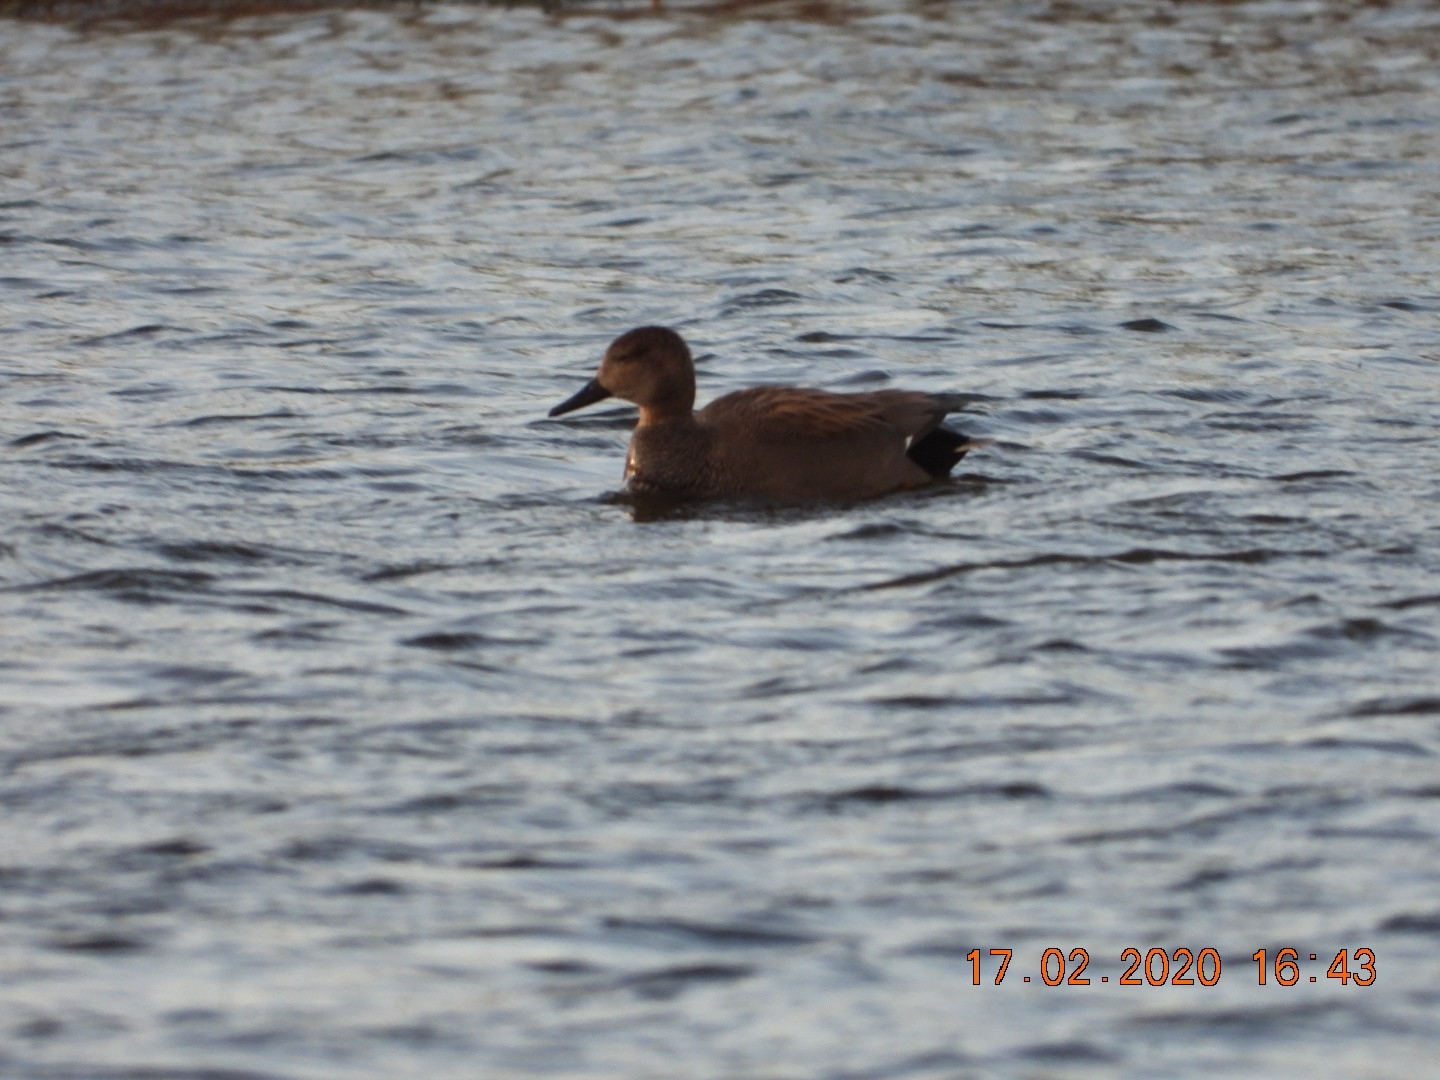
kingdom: Animalia
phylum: Chordata
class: Aves
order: Anseriformes
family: Anatidae
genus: Mareca
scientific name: Mareca strepera
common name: Gadwall
